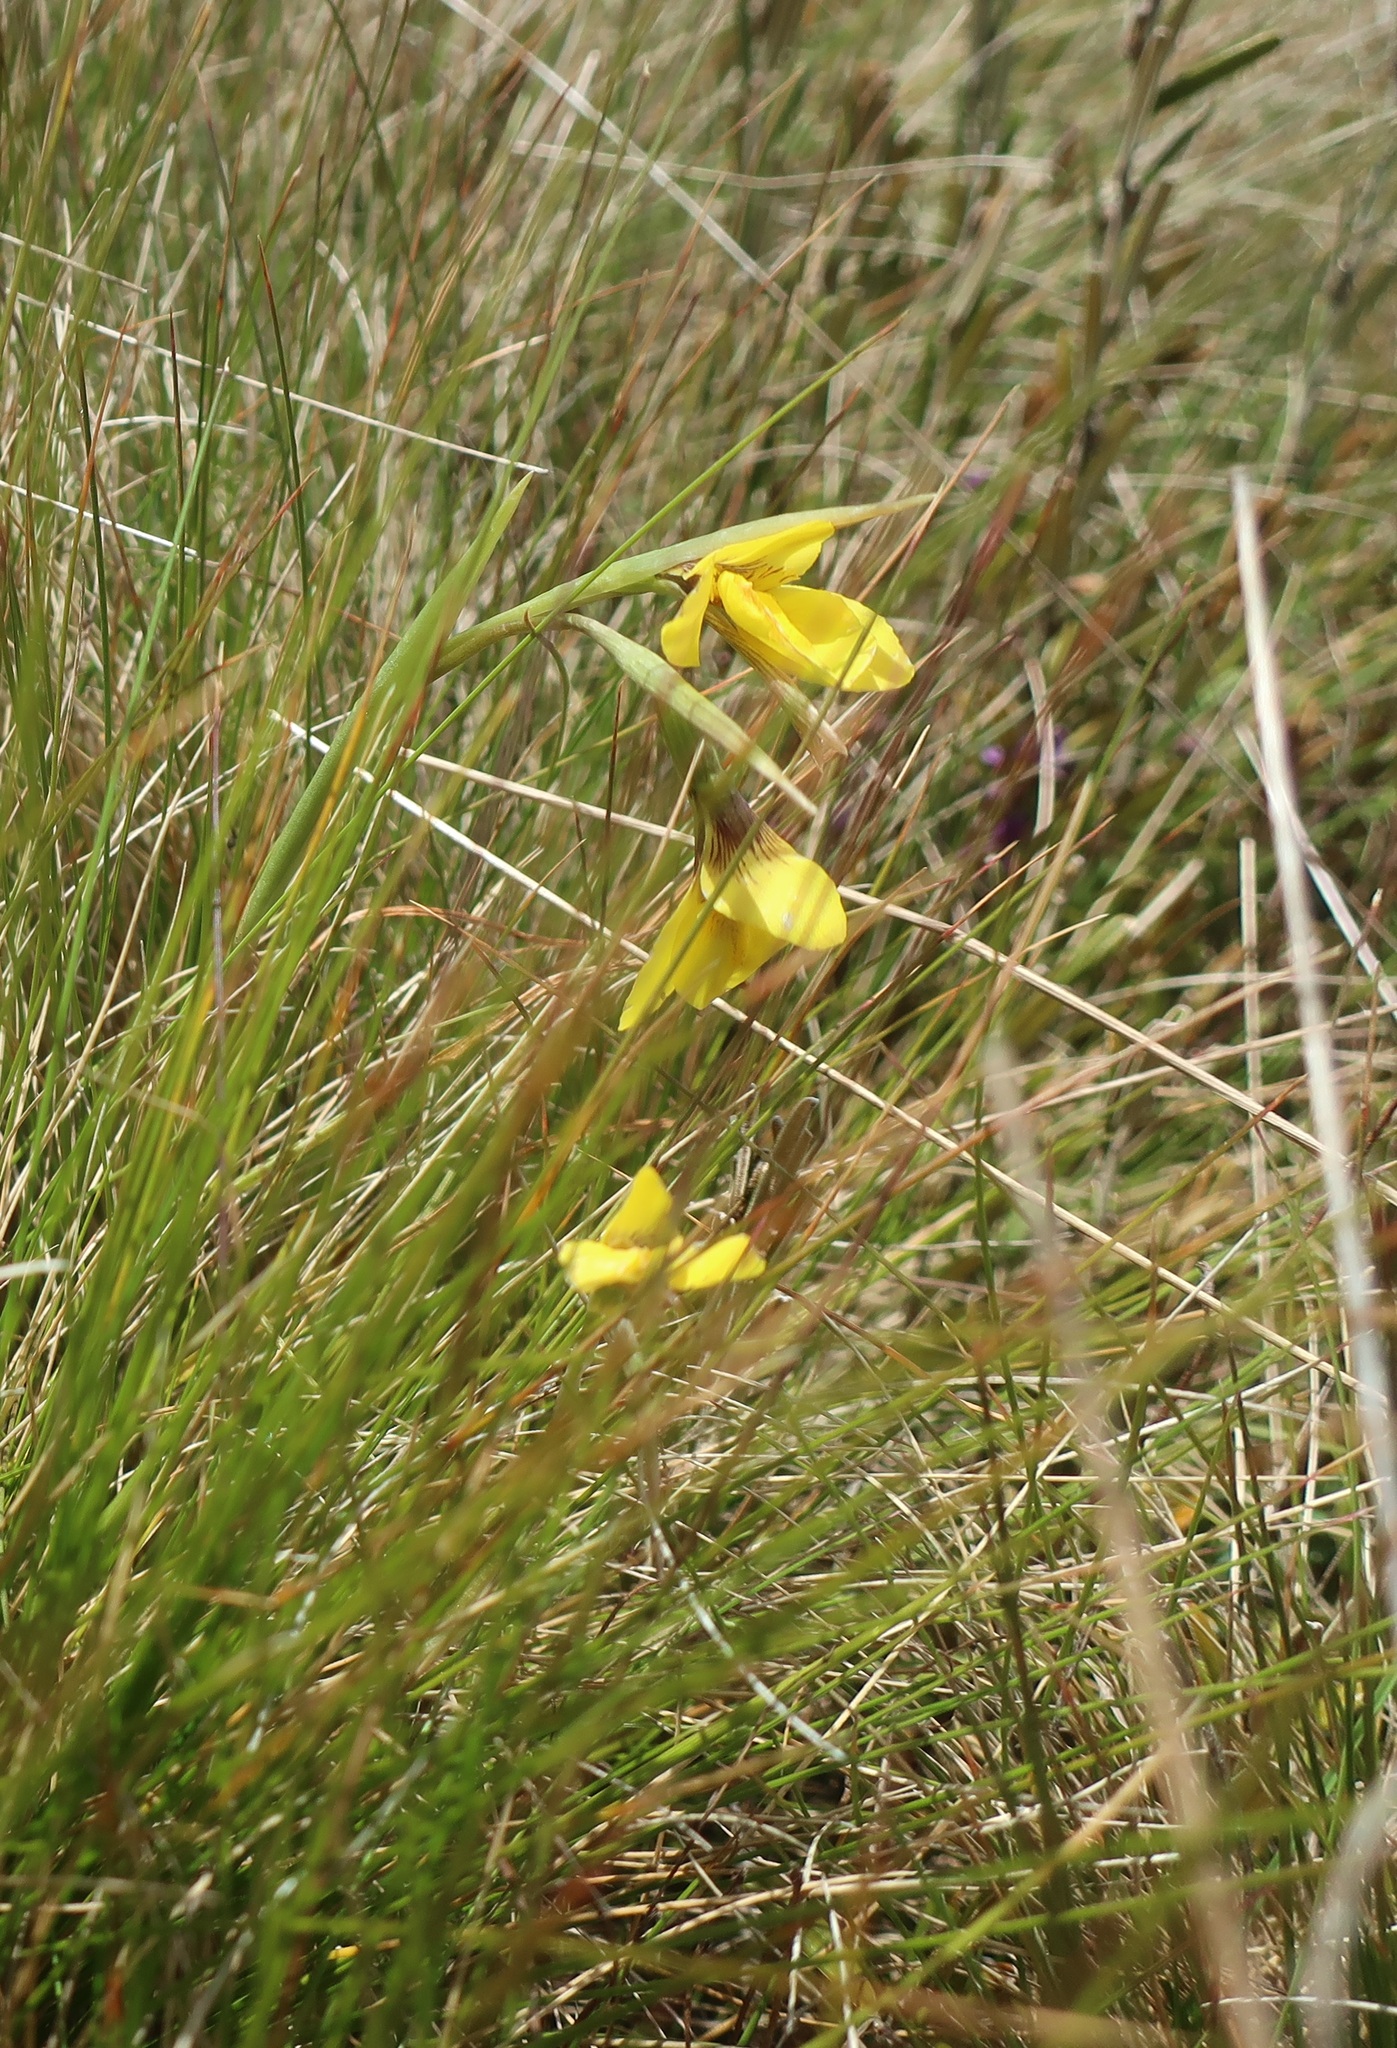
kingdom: Plantae
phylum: Tracheophyta
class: Liliopsida
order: Asparagales
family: Orchidaceae
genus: Diuris
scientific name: Diuris ochroma
